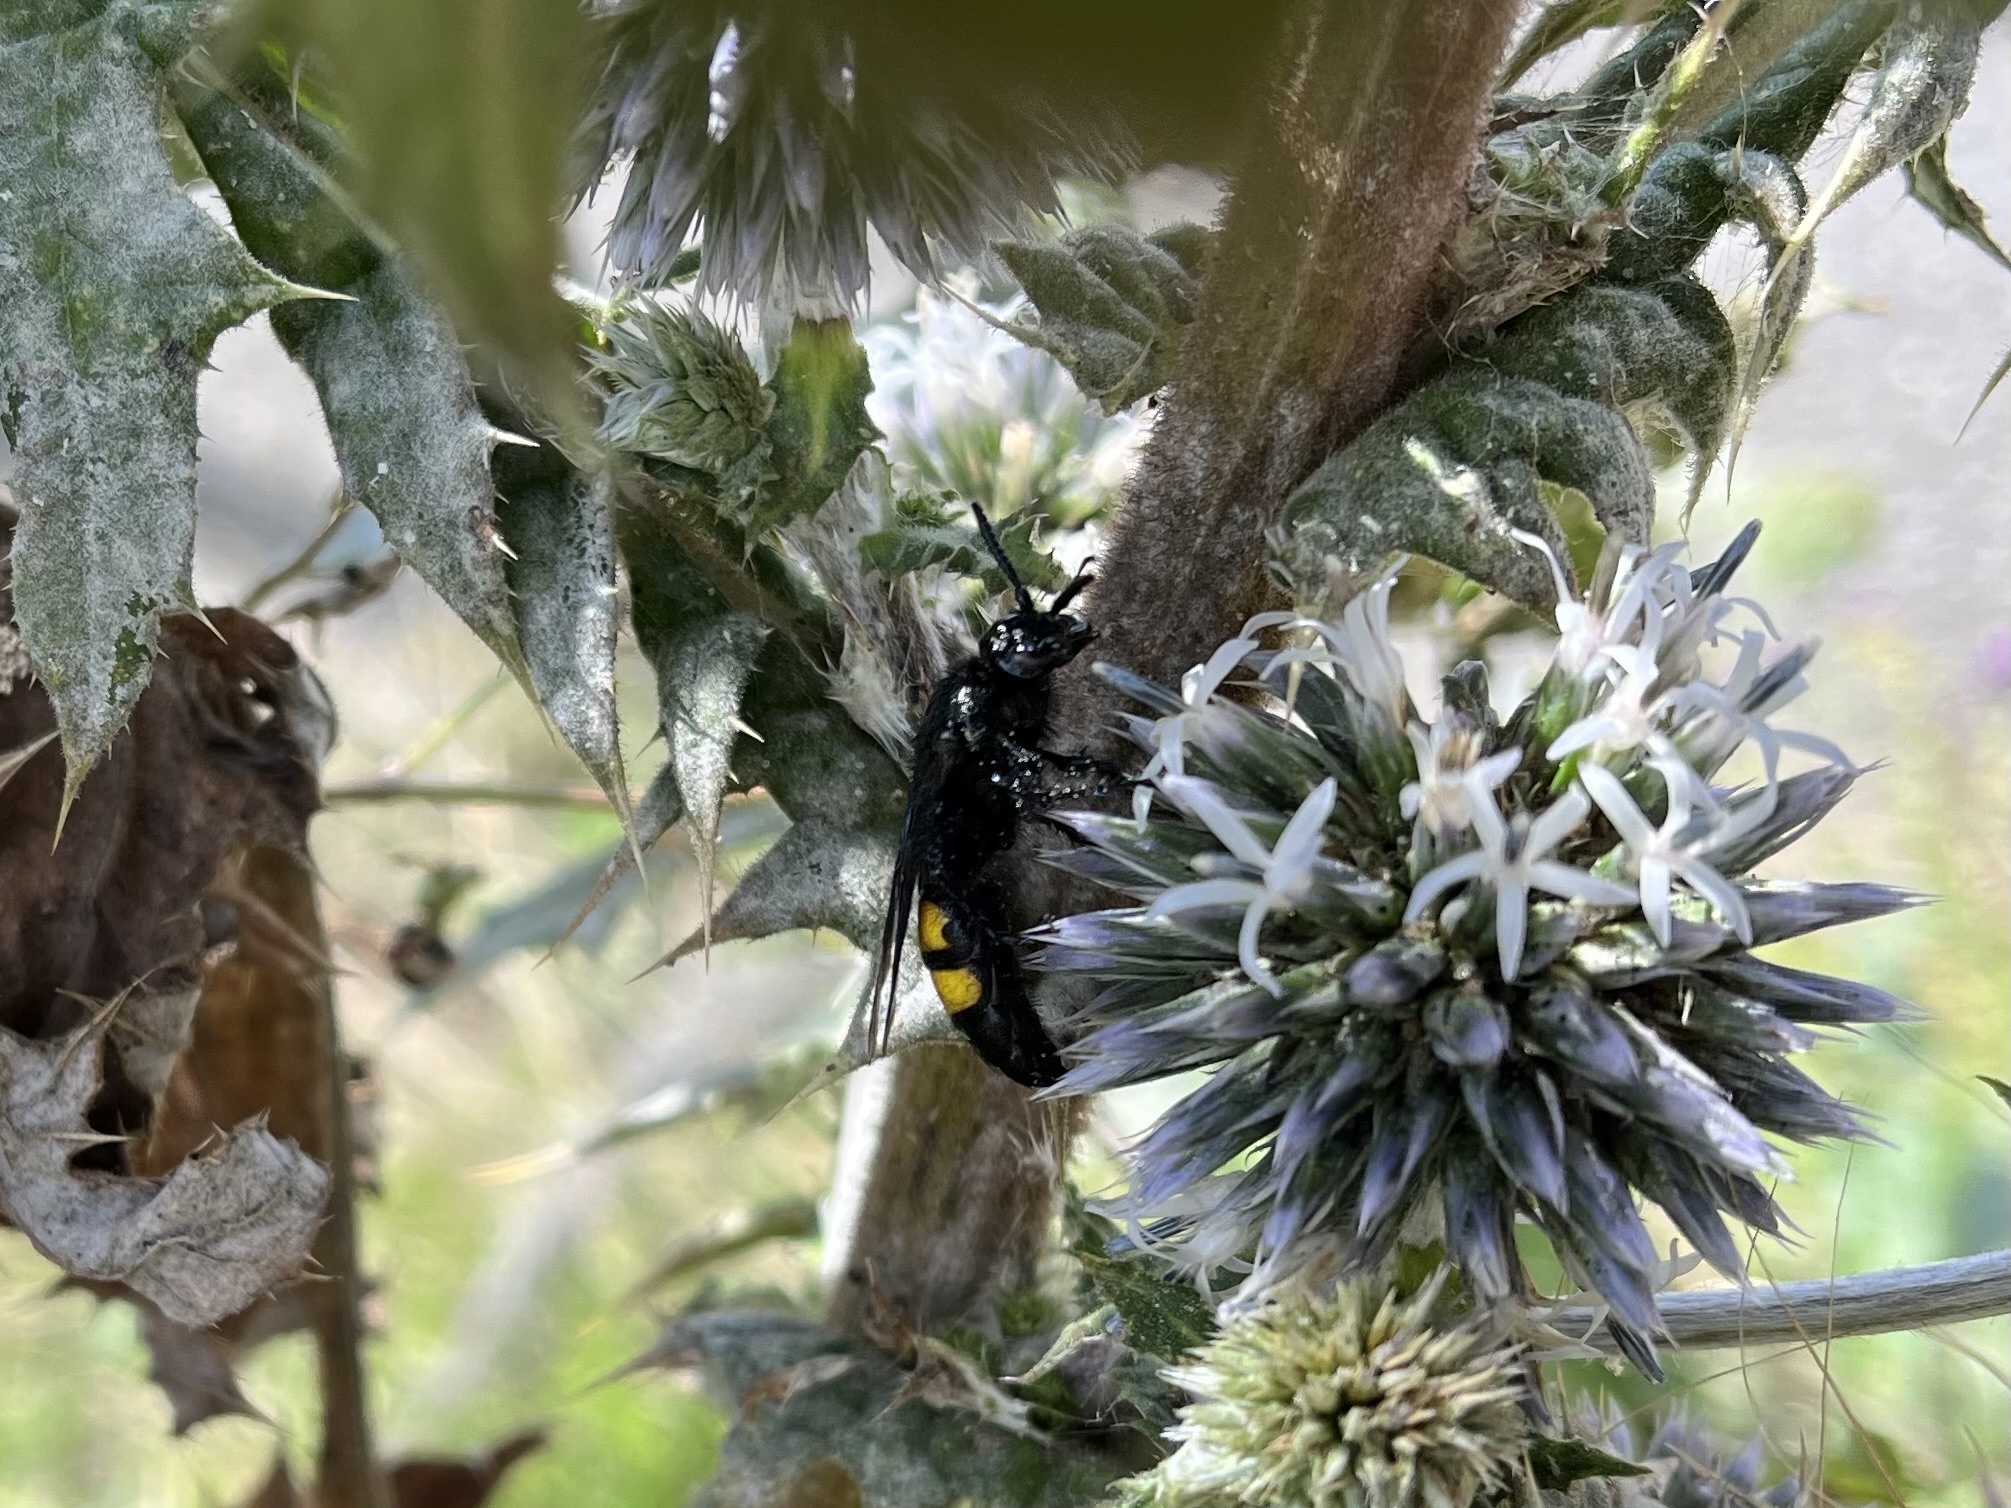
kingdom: Animalia
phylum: Arthropoda
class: Insecta
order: Hymenoptera
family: Scoliidae
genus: Scolia
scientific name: Scolia hirta
